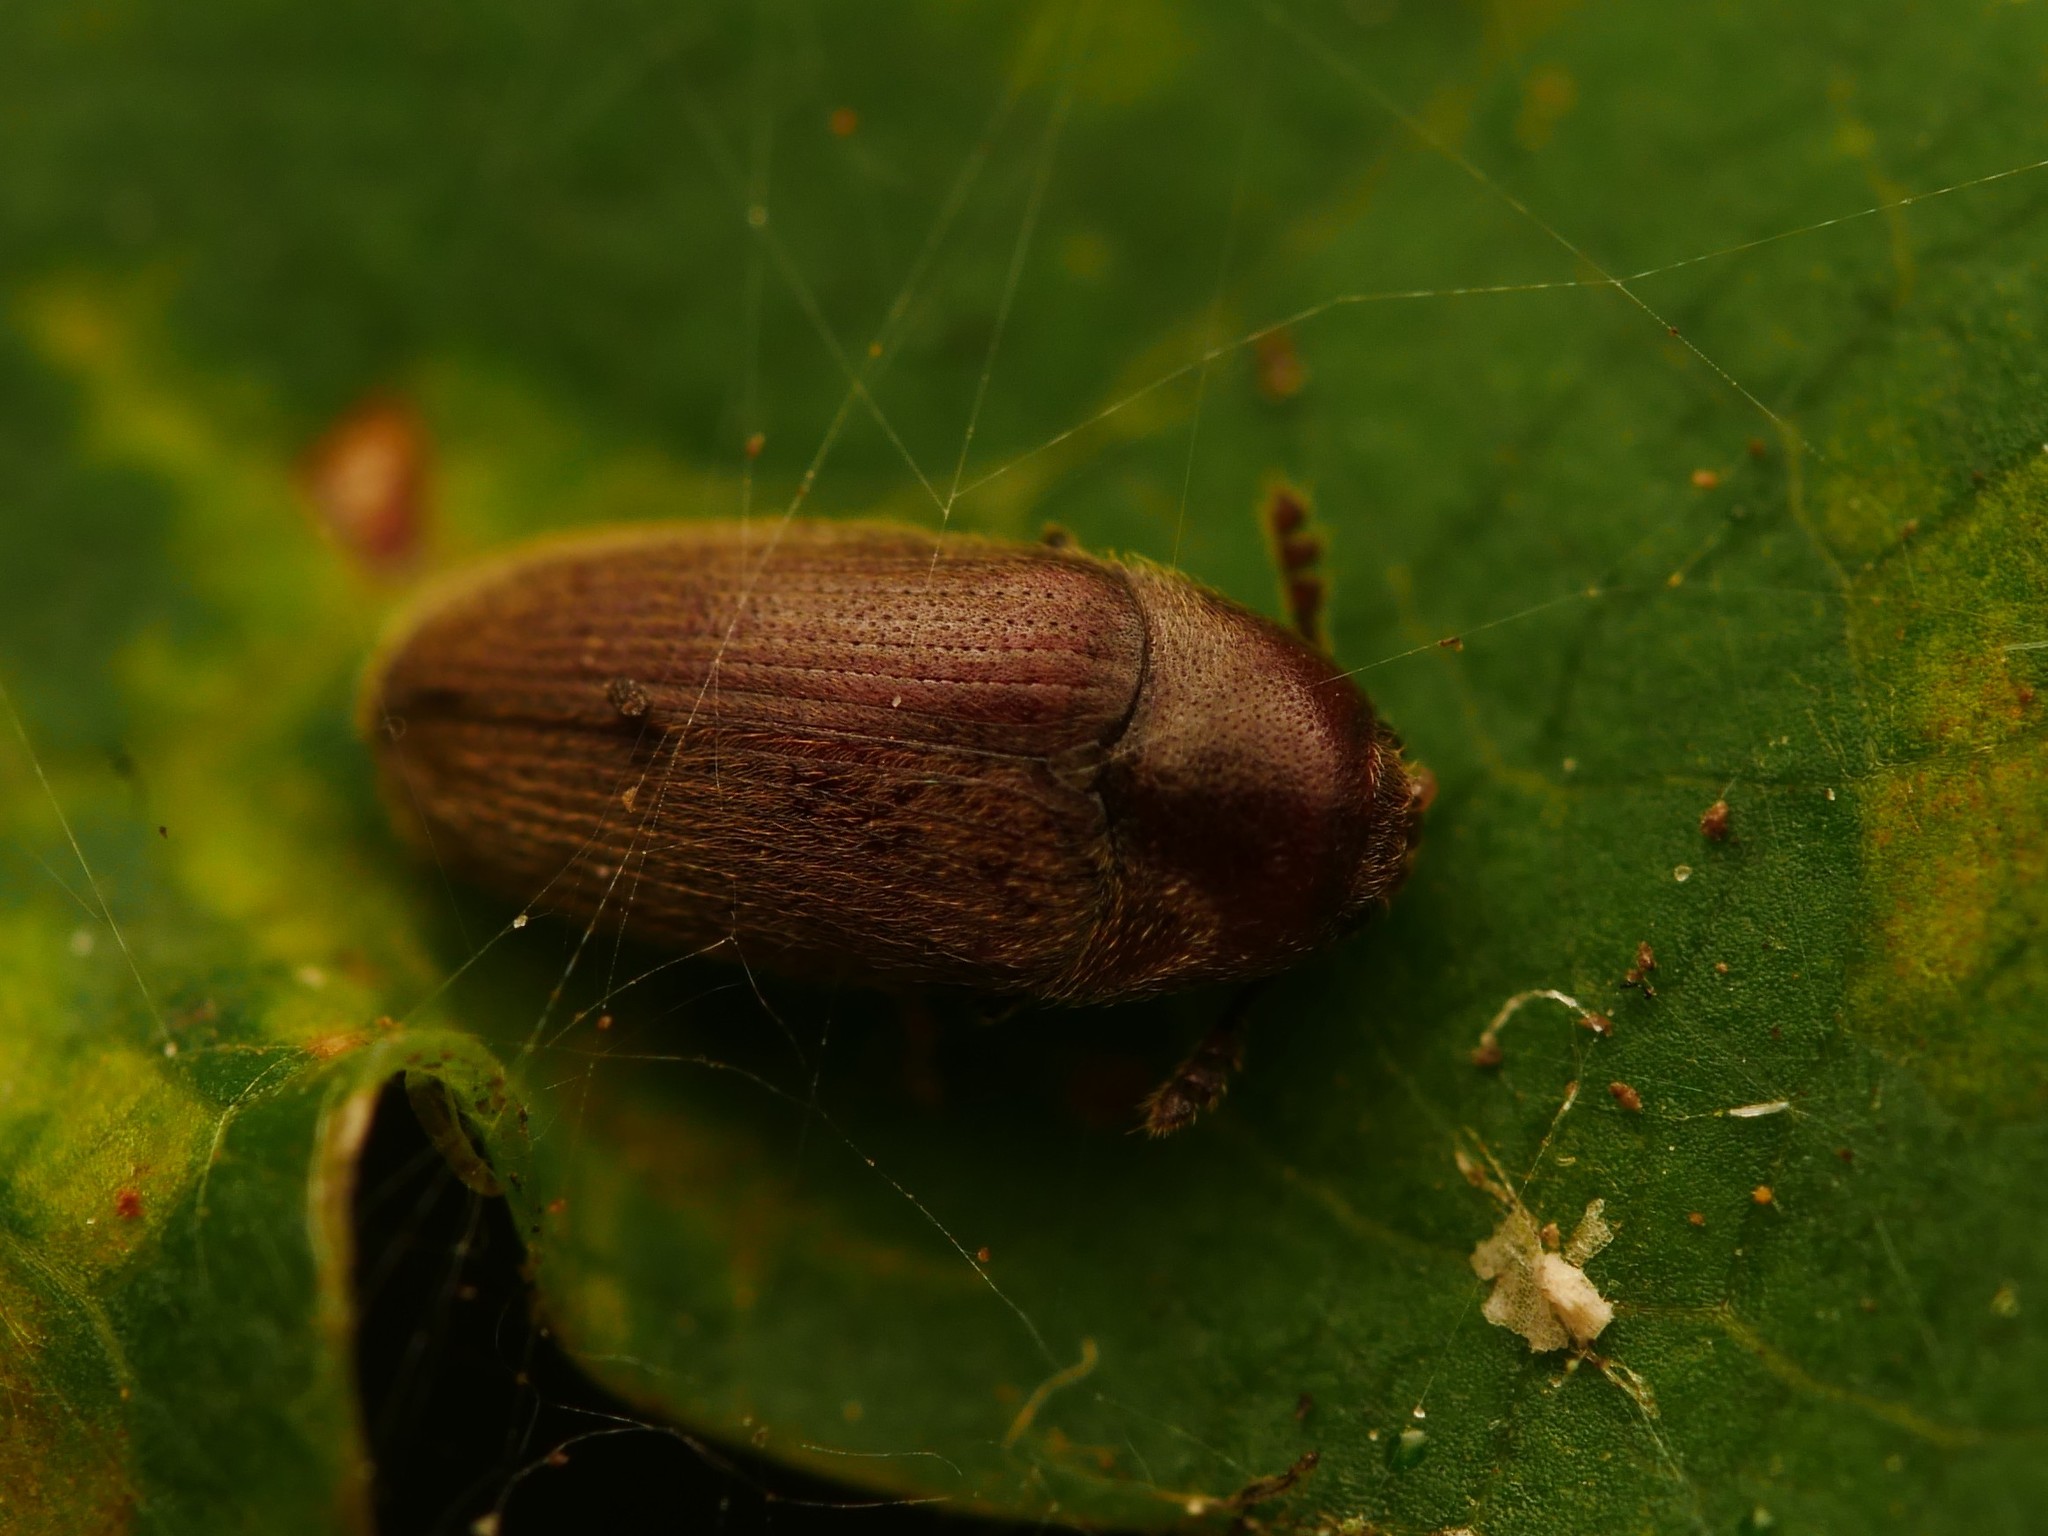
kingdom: Animalia
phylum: Arthropoda
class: Insecta
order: Coleoptera
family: Throscidae
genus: Trixagus
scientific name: Trixagus dermestoides
